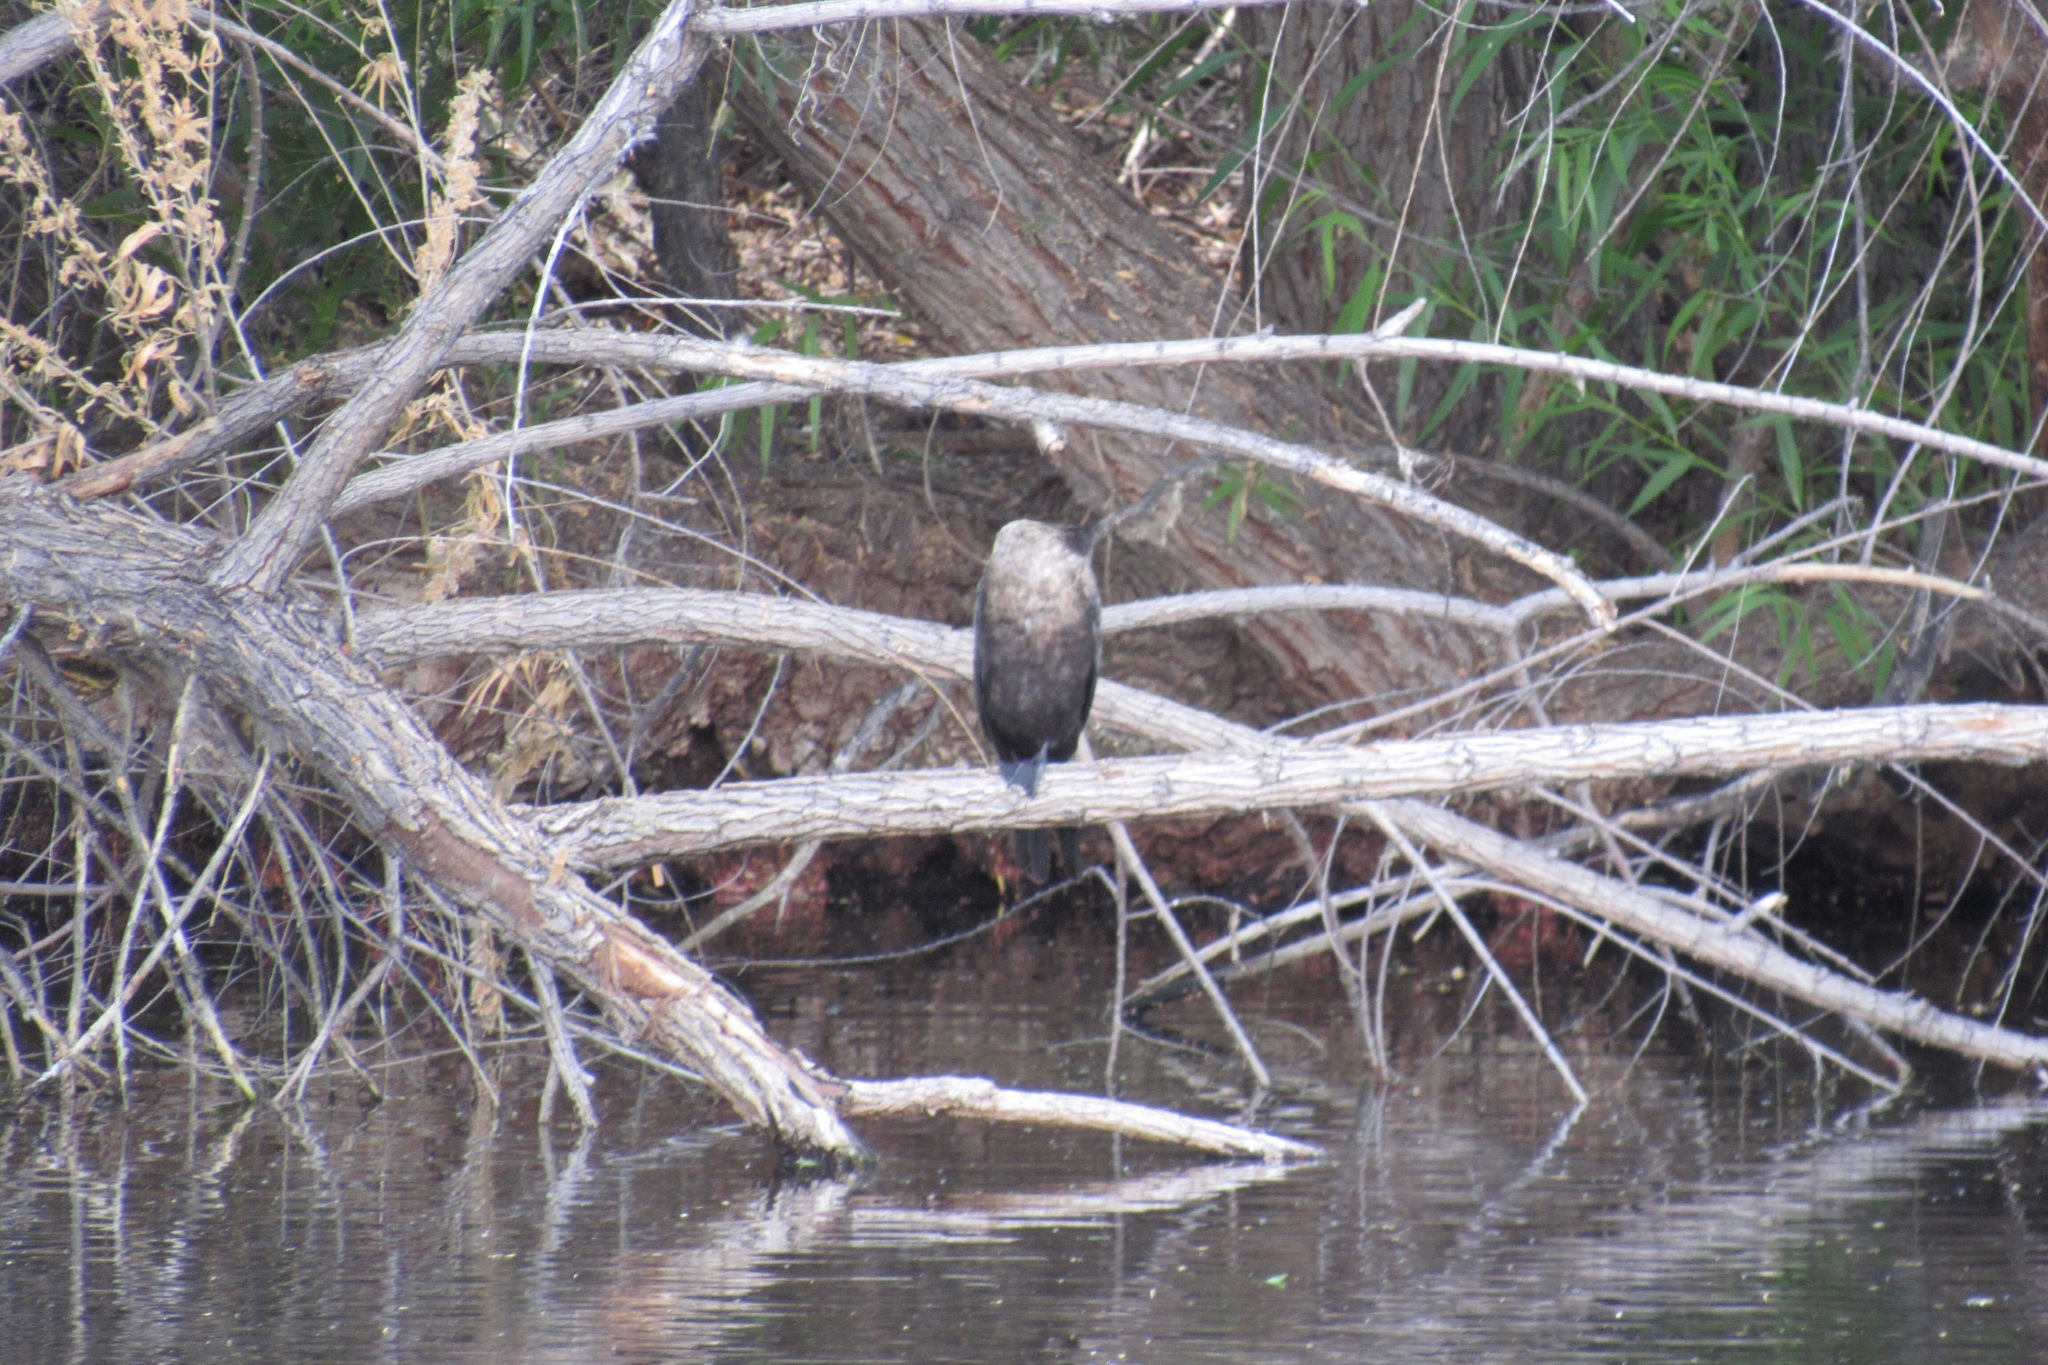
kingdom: Animalia
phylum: Chordata
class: Aves
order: Suliformes
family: Phalacrocoracidae
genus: Phalacrocorax
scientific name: Phalacrocorax brasilianus
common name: Neotropic cormorant
